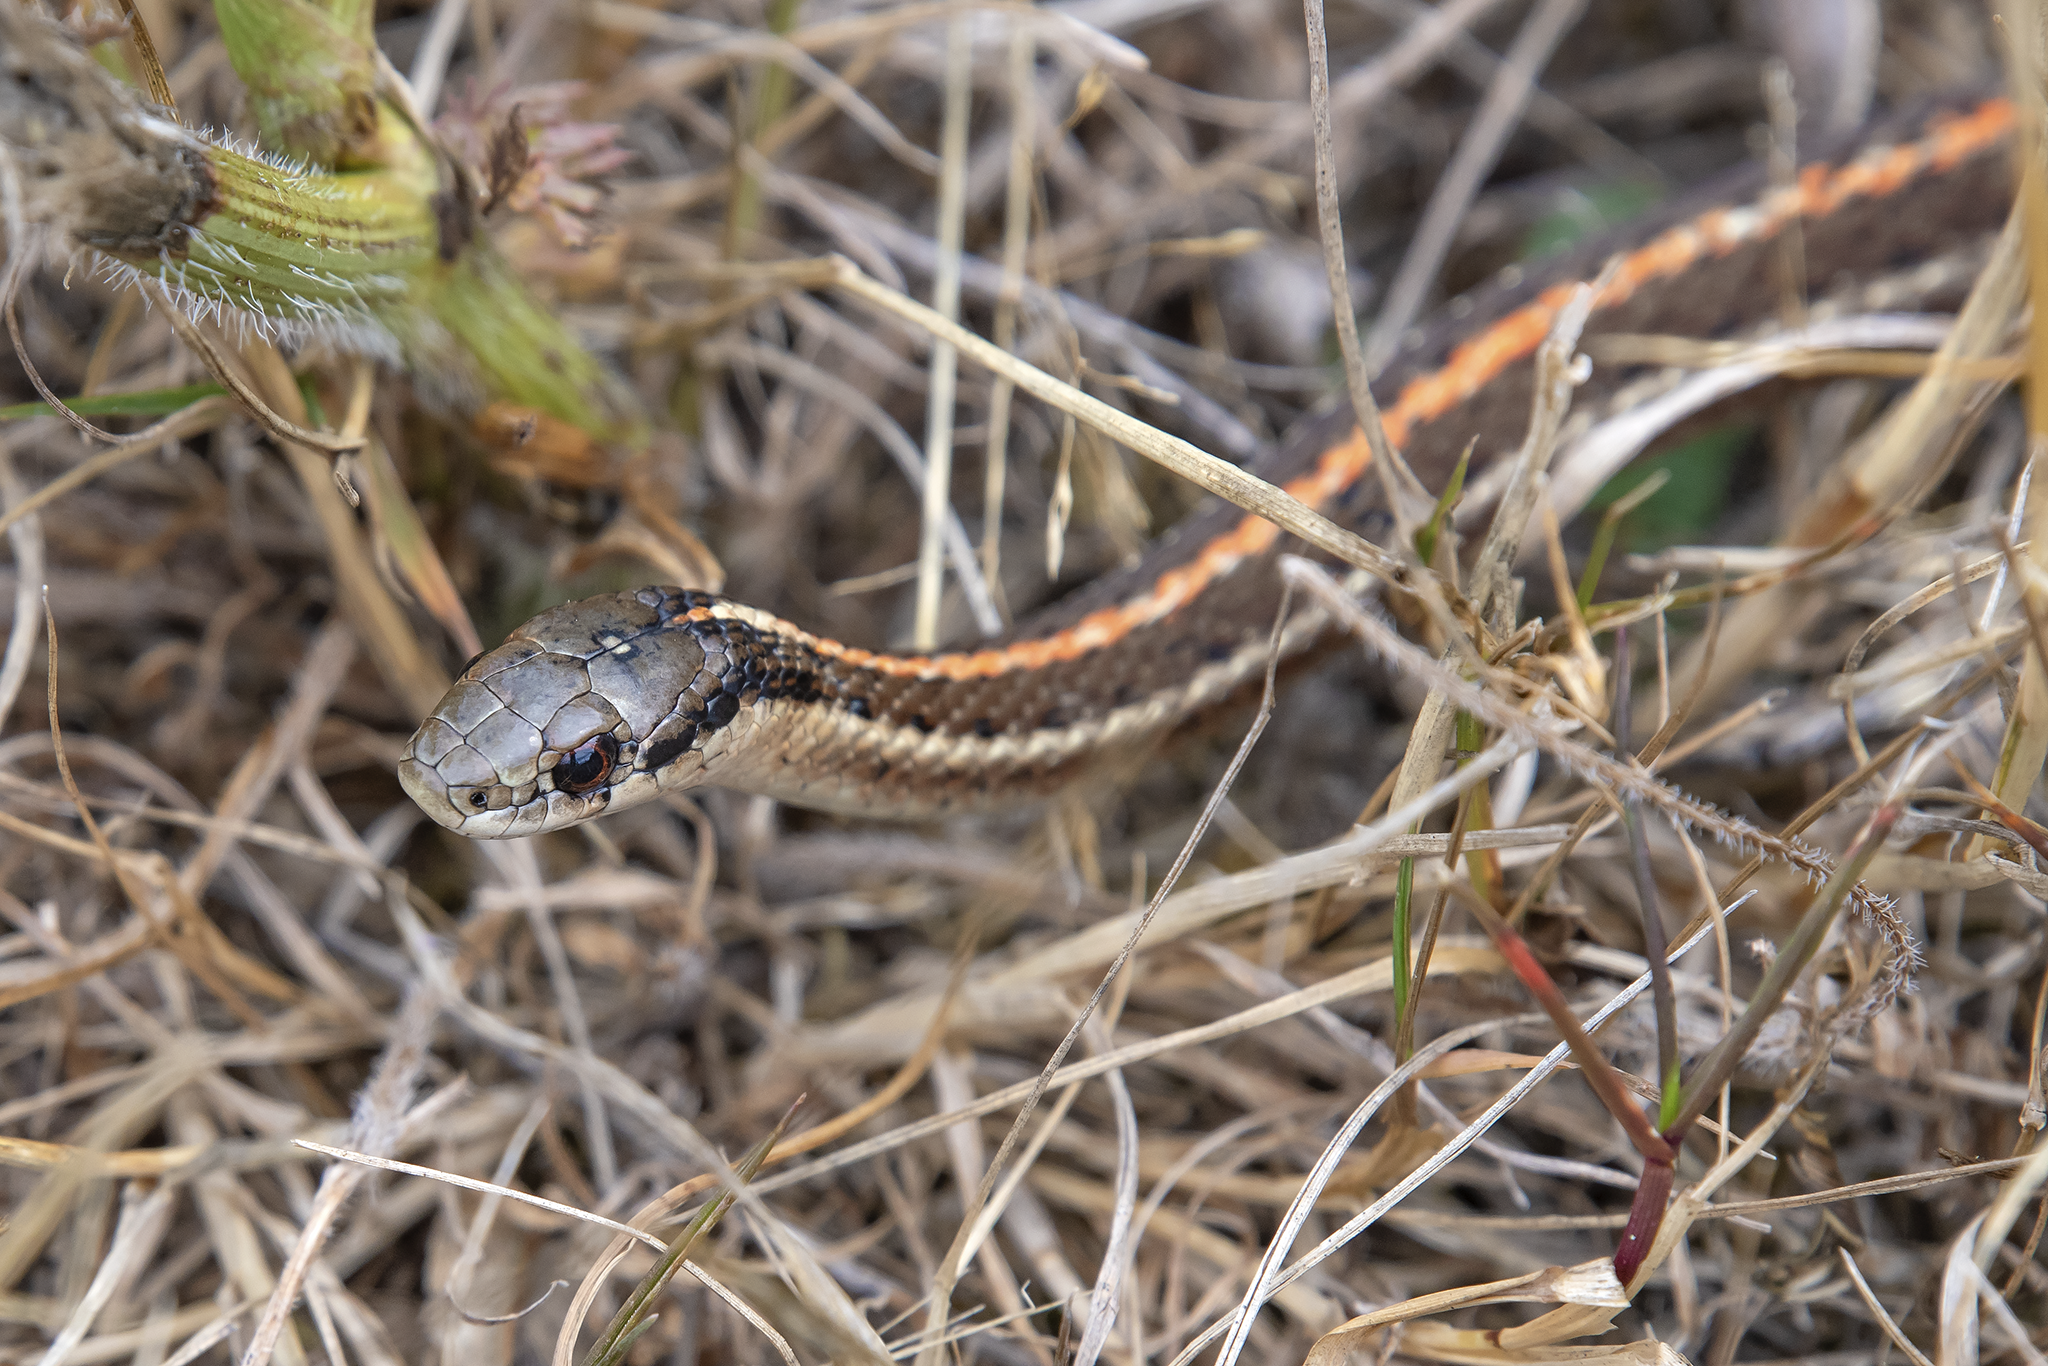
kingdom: Animalia
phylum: Chordata
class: Squamata
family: Colubridae
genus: Thamnophis
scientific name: Thamnophis ordinoides
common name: Northwestern garter snake
